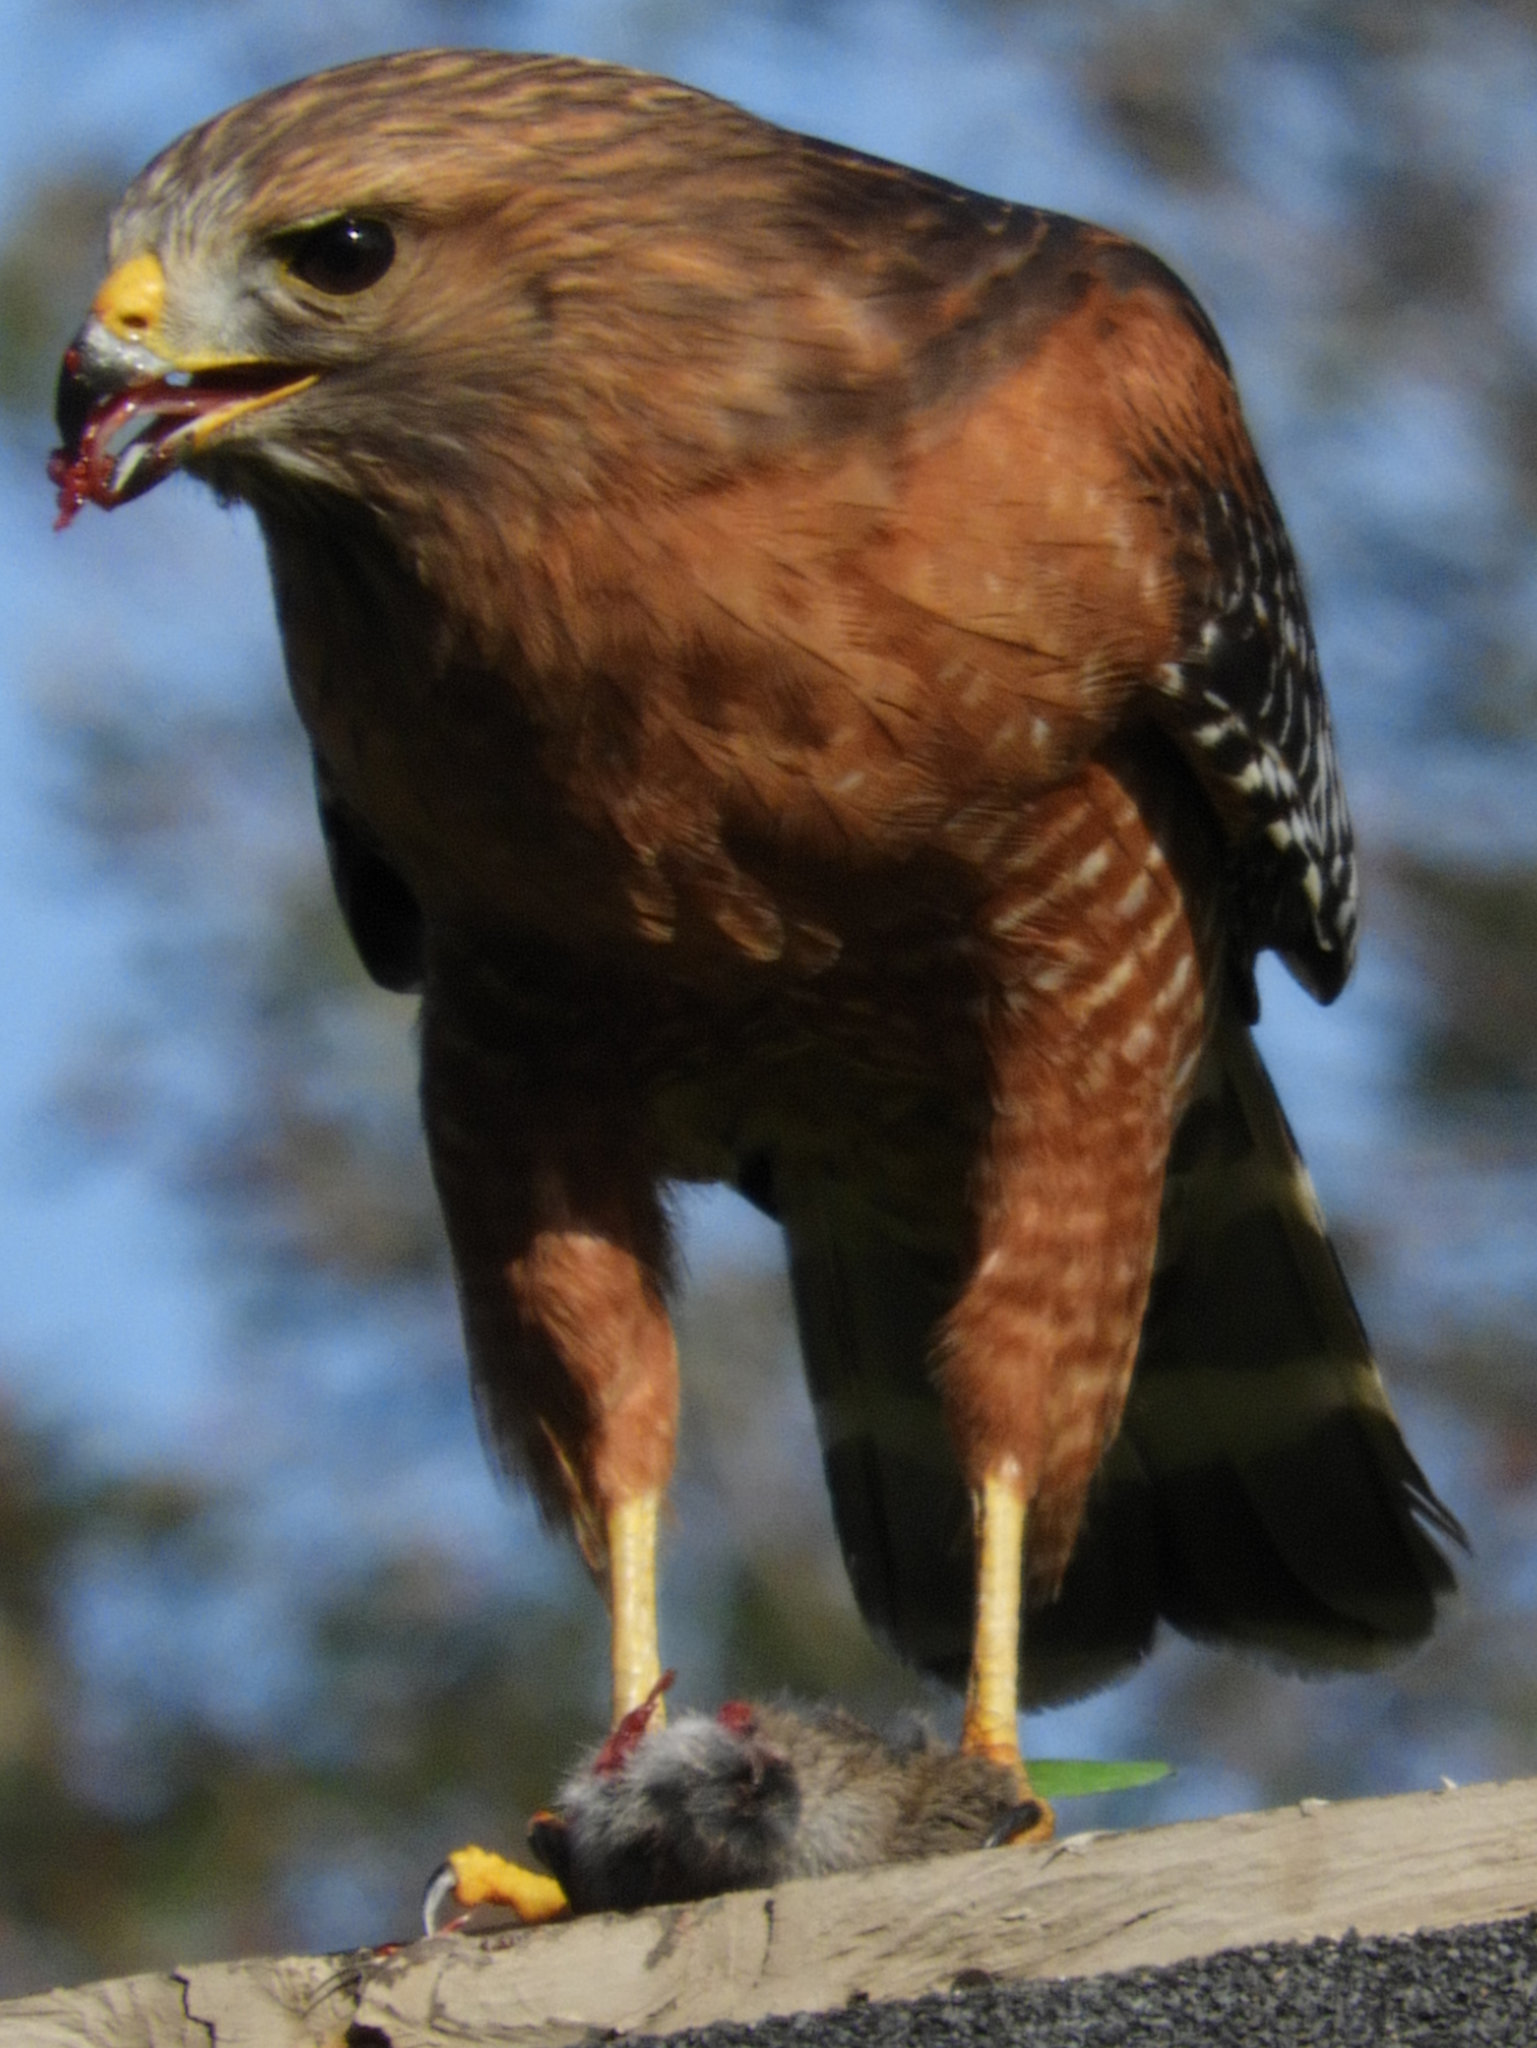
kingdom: Animalia
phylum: Chordata
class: Aves
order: Accipitriformes
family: Accipitridae
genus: Buteo
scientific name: Buteo lineatus
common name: Red-shouldered hawk
